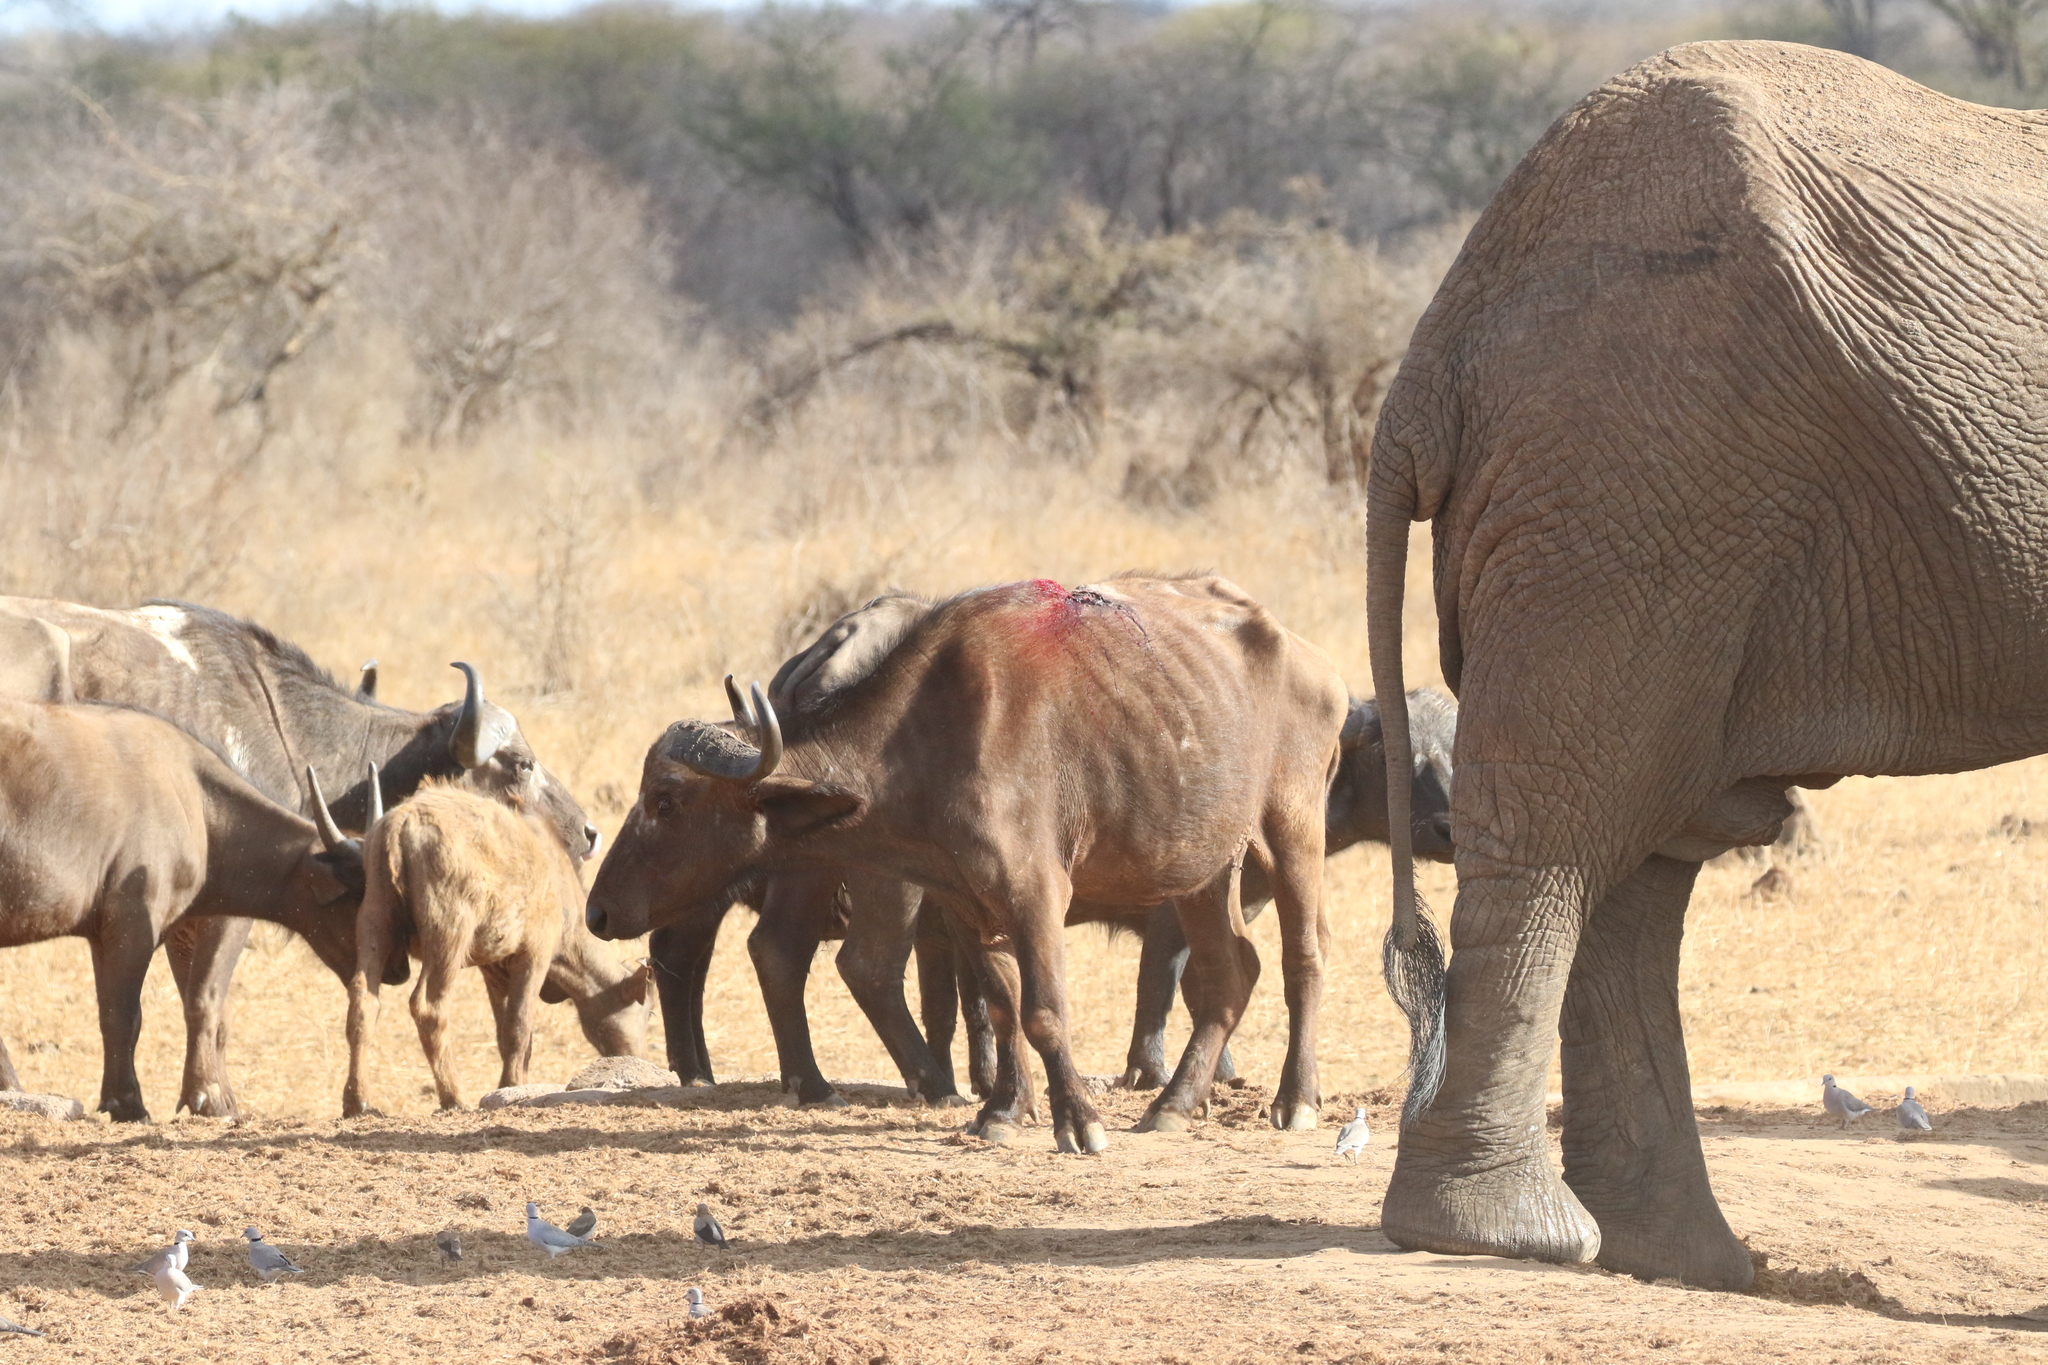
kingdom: Animalia
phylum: Chordata
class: Mammalia
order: Artiodactyla
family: Bovidae
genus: Syncerus
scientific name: Syncerus caffer
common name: African buffalo
